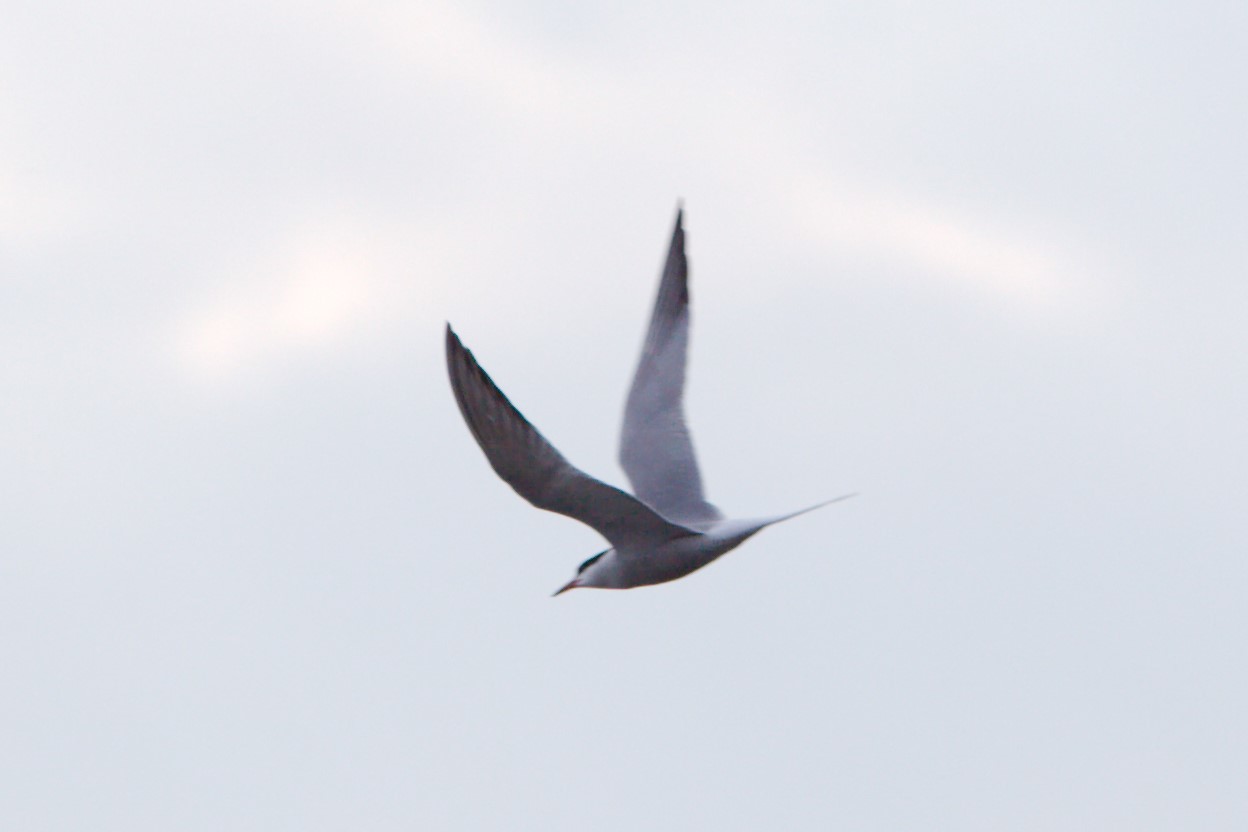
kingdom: Animalia
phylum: Chordata
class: Aves
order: Charadriiformes
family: Laridae
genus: Sterna
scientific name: Sterna hirundo
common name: Common tern
